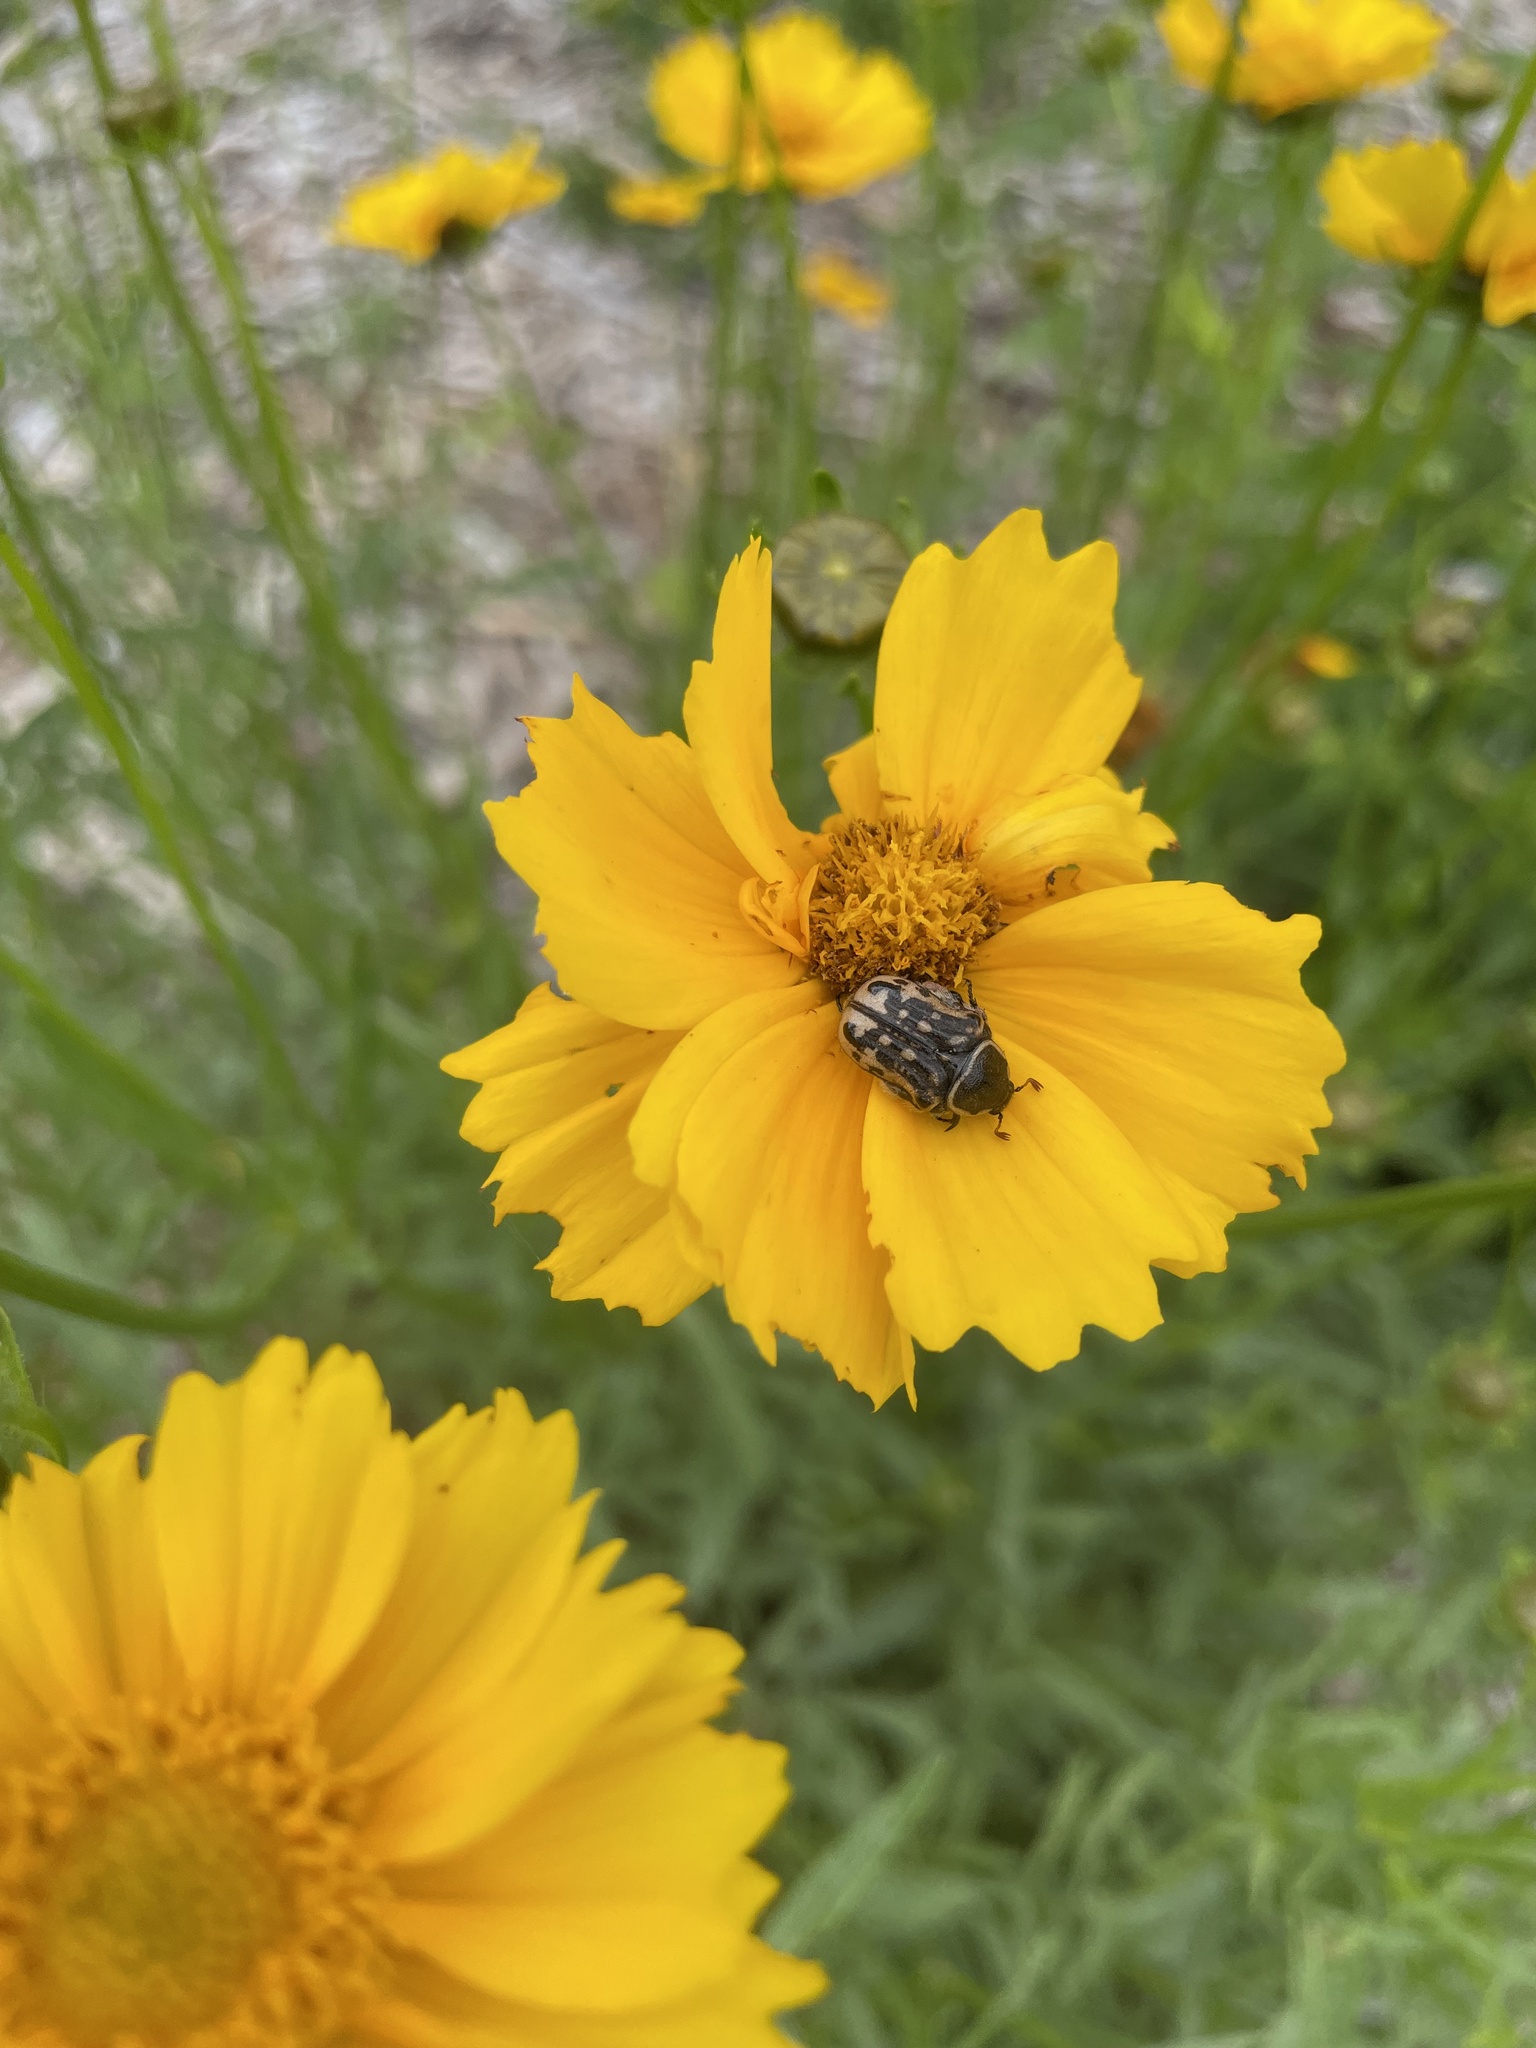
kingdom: Animalia
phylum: Arthropoda
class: Insecta
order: Coleoptera
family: Scarabaeidae
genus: Euphoria
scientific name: Euphoria kernii
